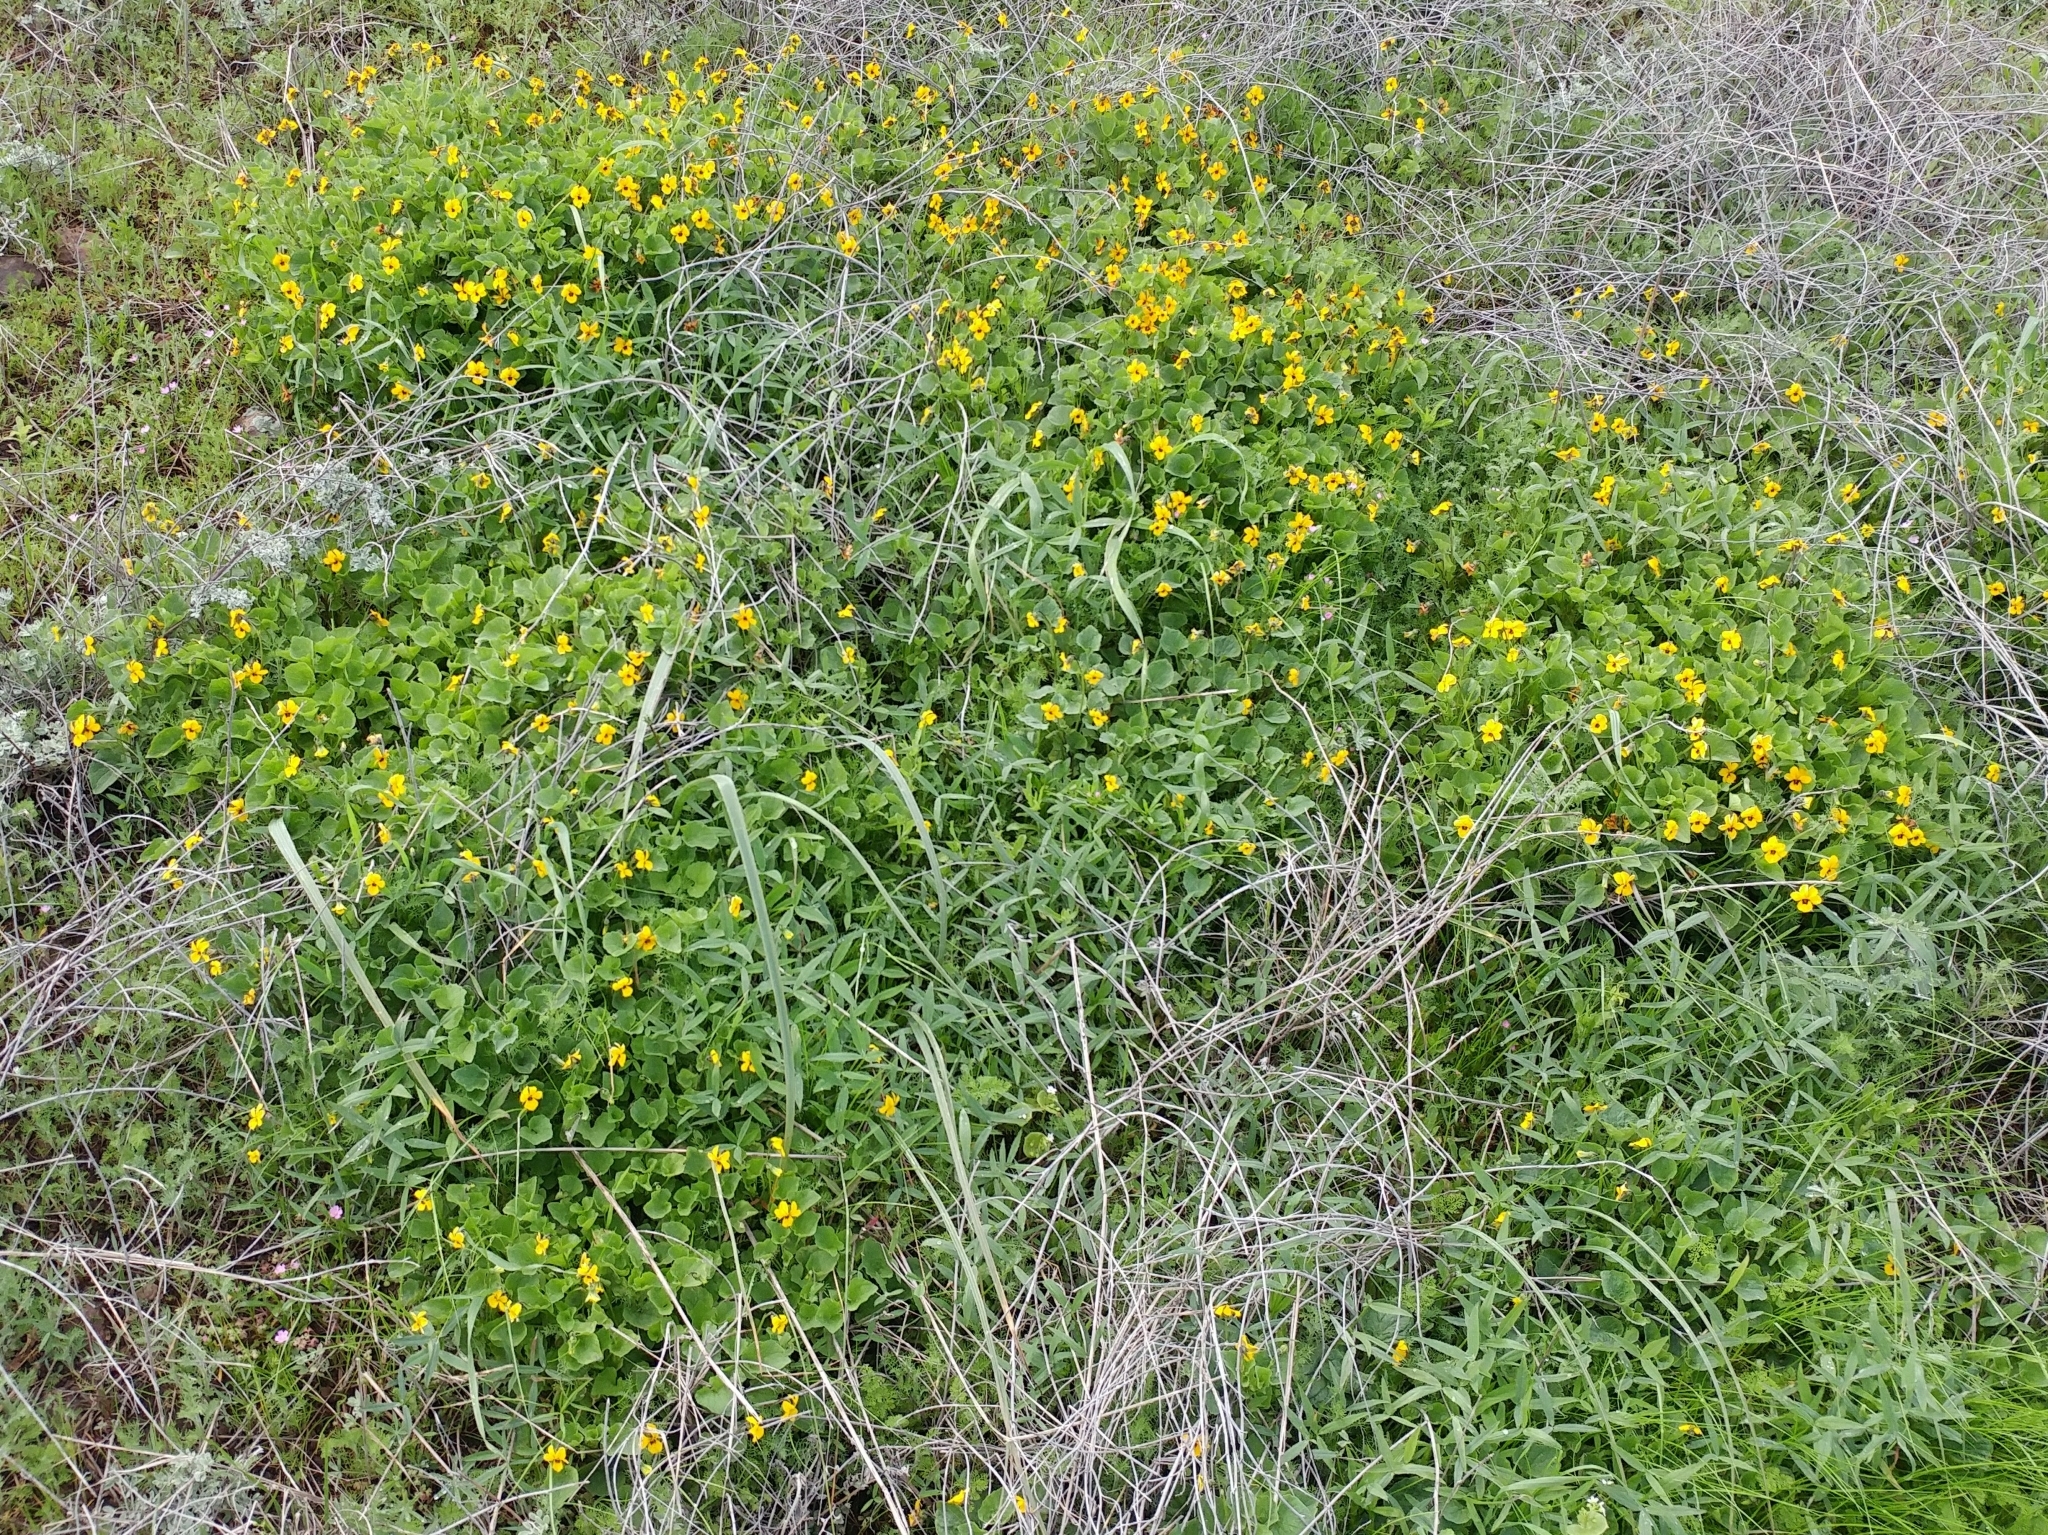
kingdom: Plantae
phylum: Tracheophyta
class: Magnoliopsida
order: Malpighiales
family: Violaceae
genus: Viola
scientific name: Viola pedunculata
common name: California golden violet
